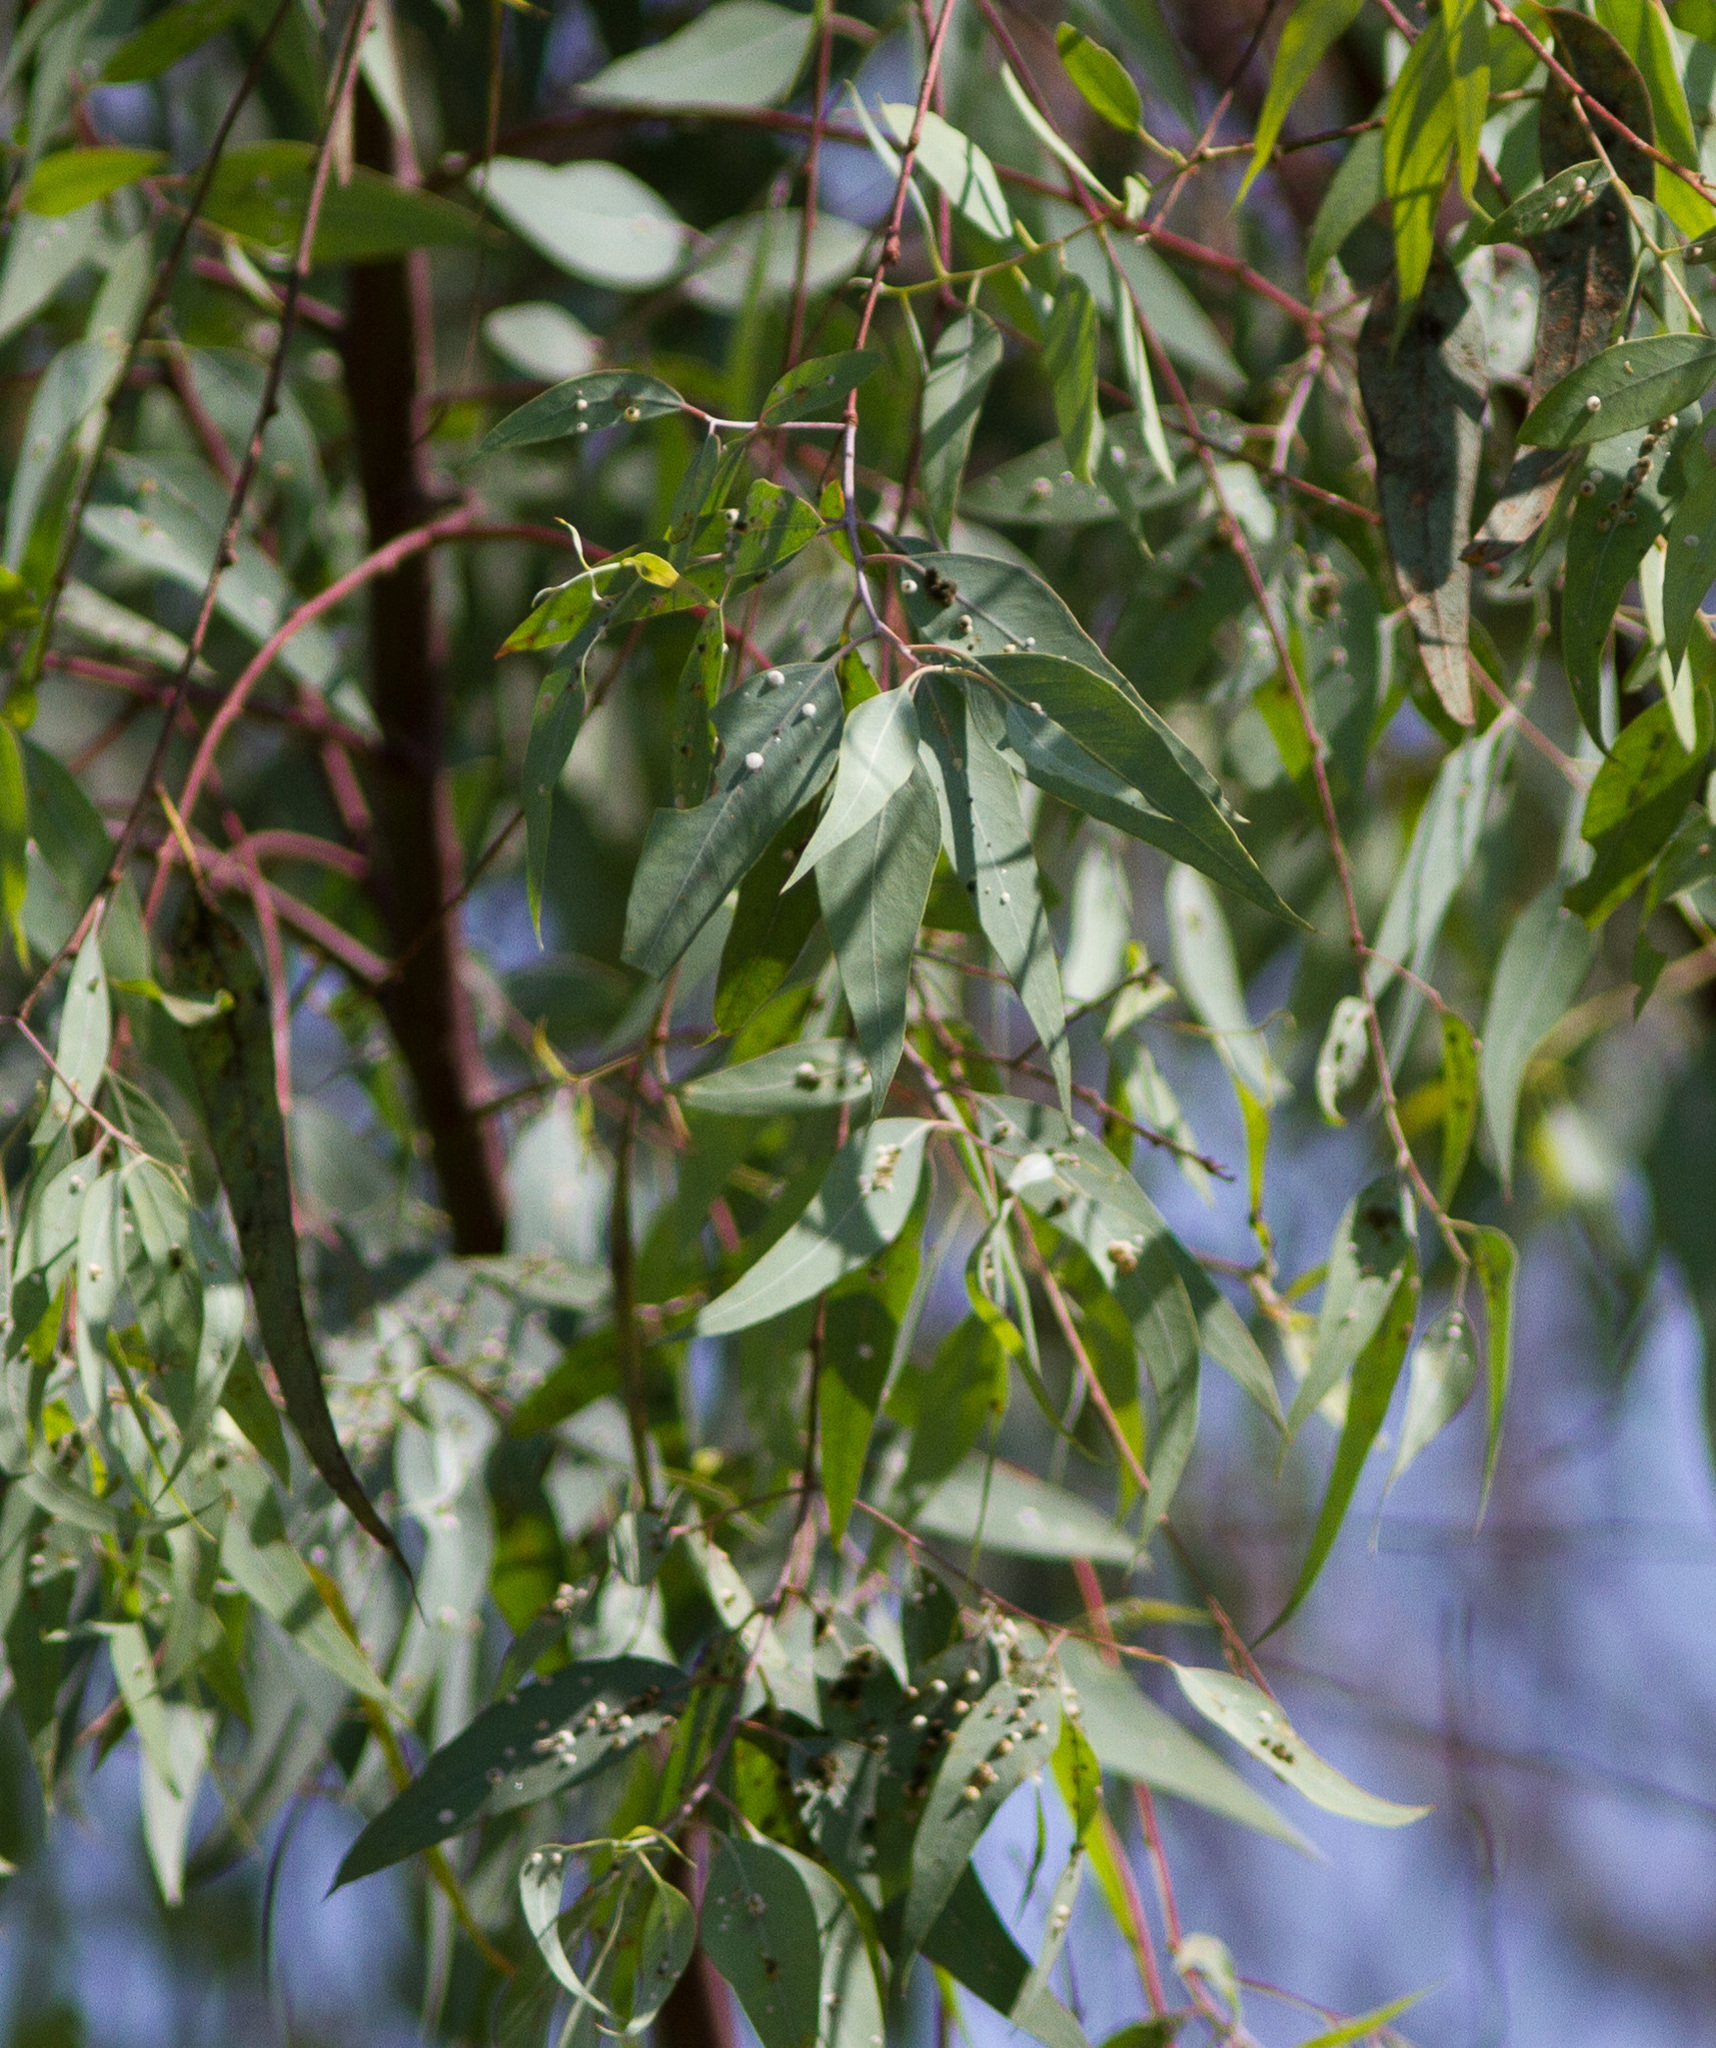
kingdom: Animalia
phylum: Arthropoda
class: Insecta
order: Hemiptera
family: Aphalaridae
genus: Glycaspis
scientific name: Glycaspis brimblecombei
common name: Red gum lerp psyllid
